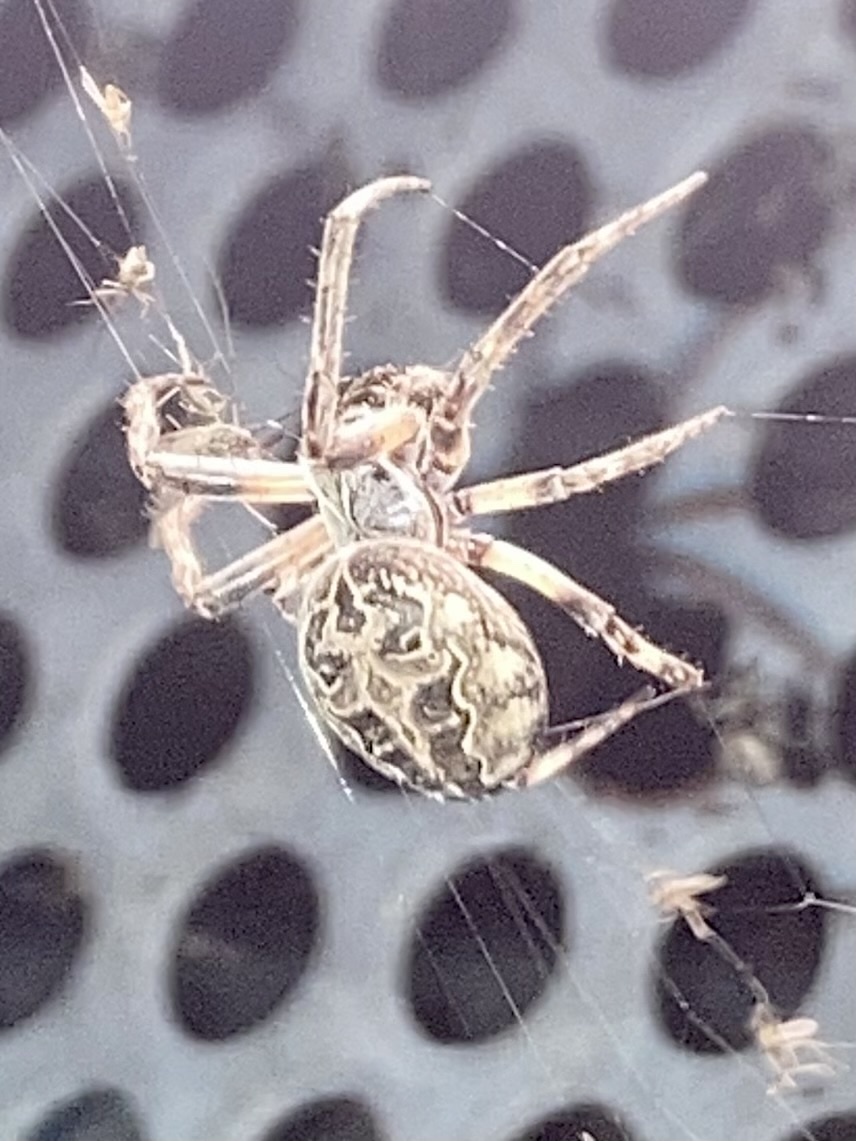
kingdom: Animalia
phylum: Arthropoda
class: Arachnida
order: Araneae
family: Araneidae
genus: Larinioides
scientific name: Larinioides sclopetarius
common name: Bridge orbweaver
